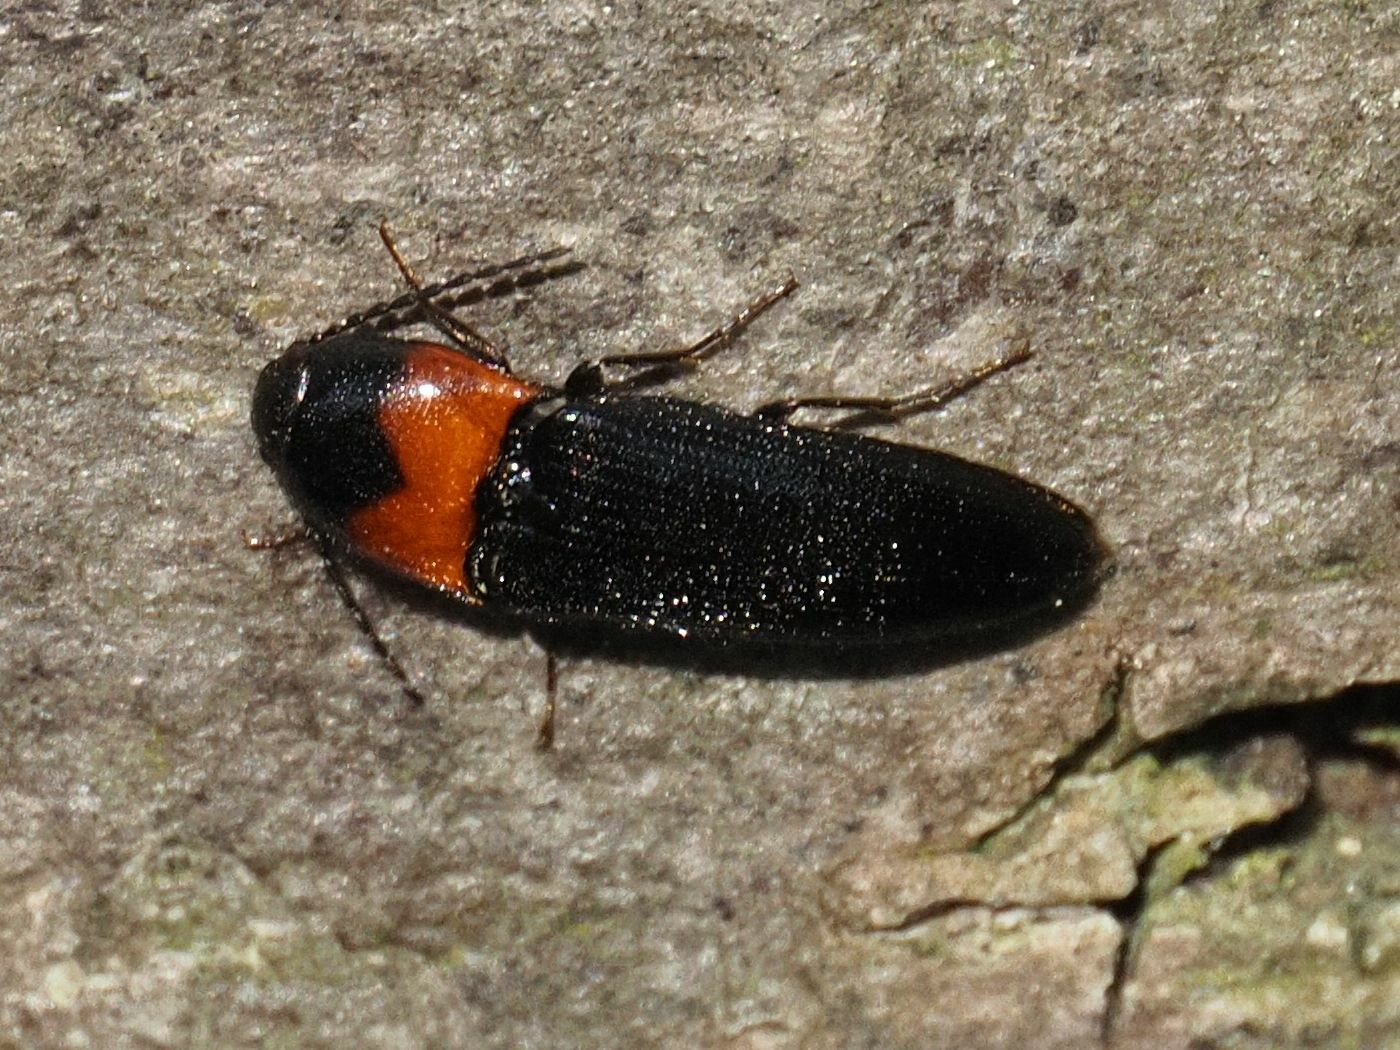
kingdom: Animalia
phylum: Arthropoda
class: Insecta
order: Coleoptera
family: Elateridae
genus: Ampedus
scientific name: Ampedus sinuatus
